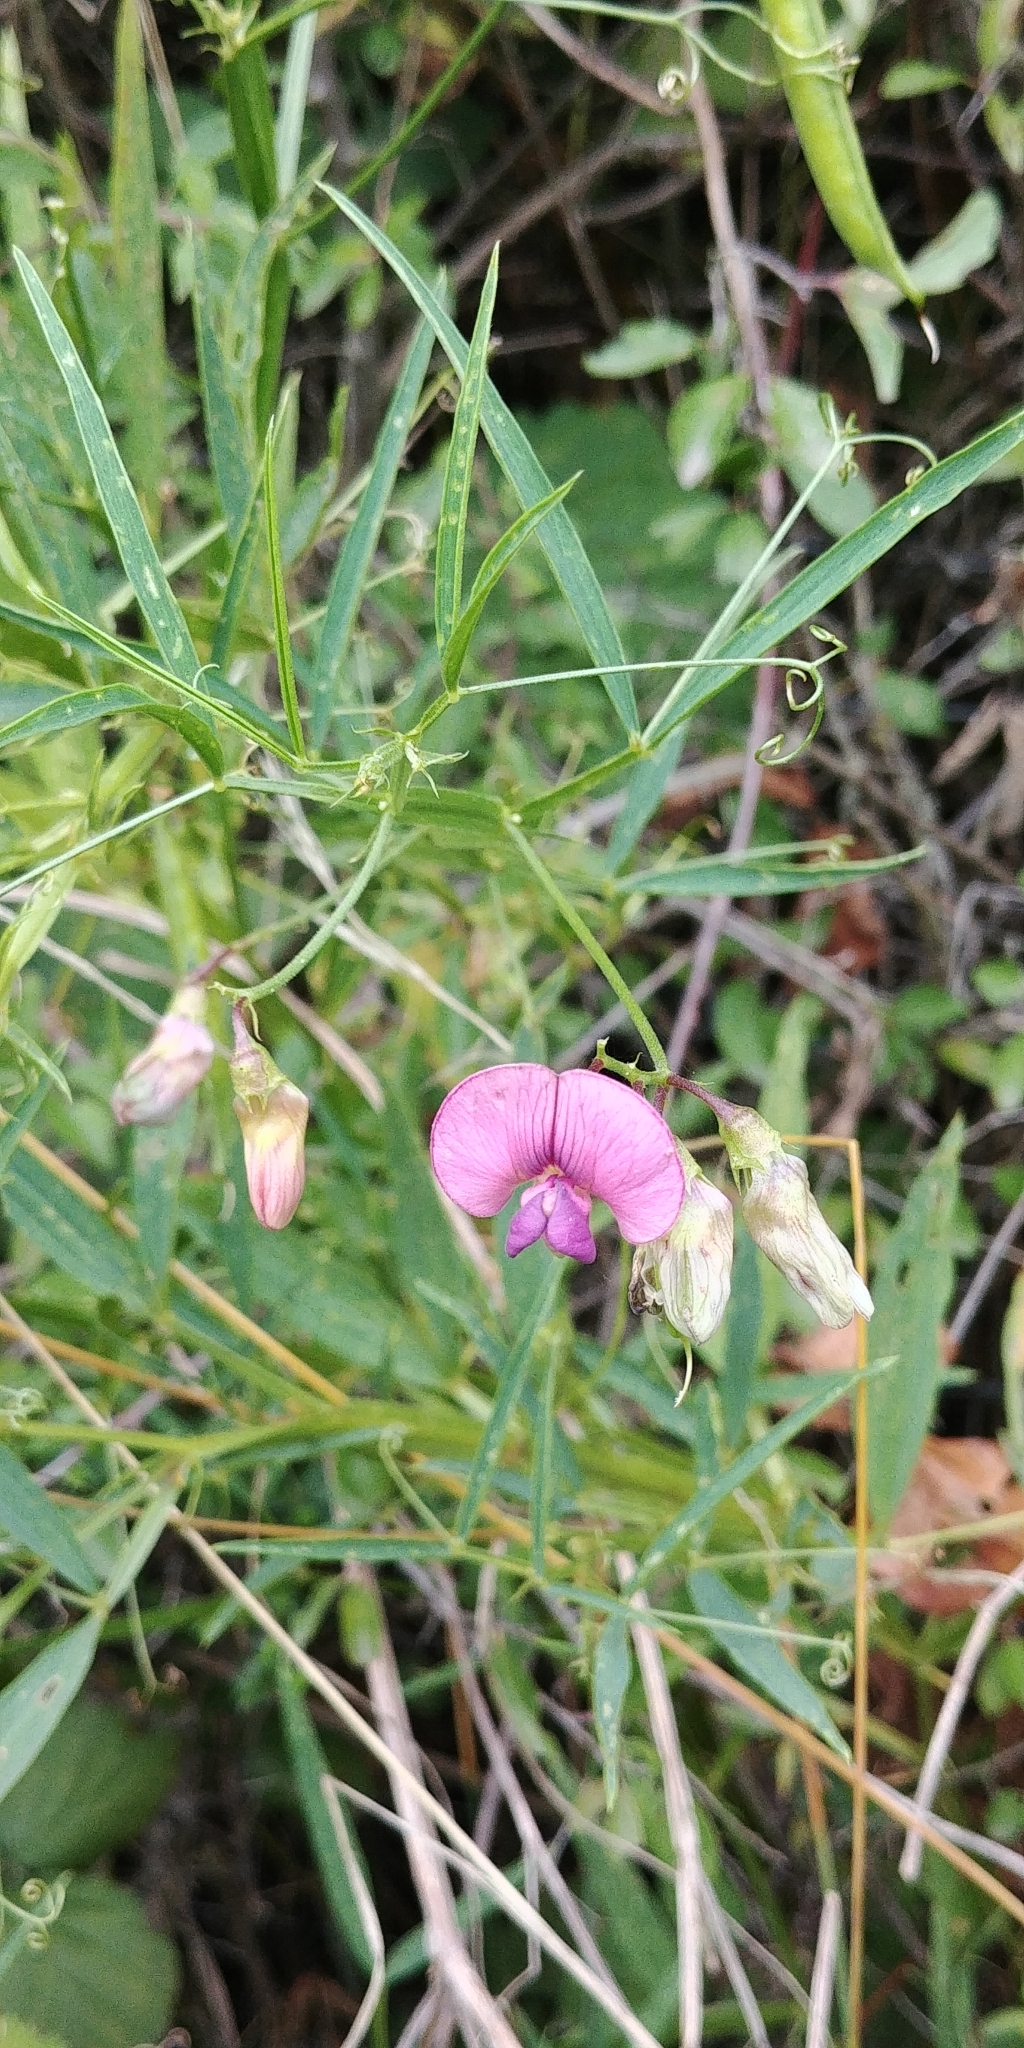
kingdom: Plantae
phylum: Tracheophyta
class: Magnoliopsida
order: Fabales
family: Fabaceae
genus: Lathyrus
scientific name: Lathyrus sylvestris
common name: Flat pea
